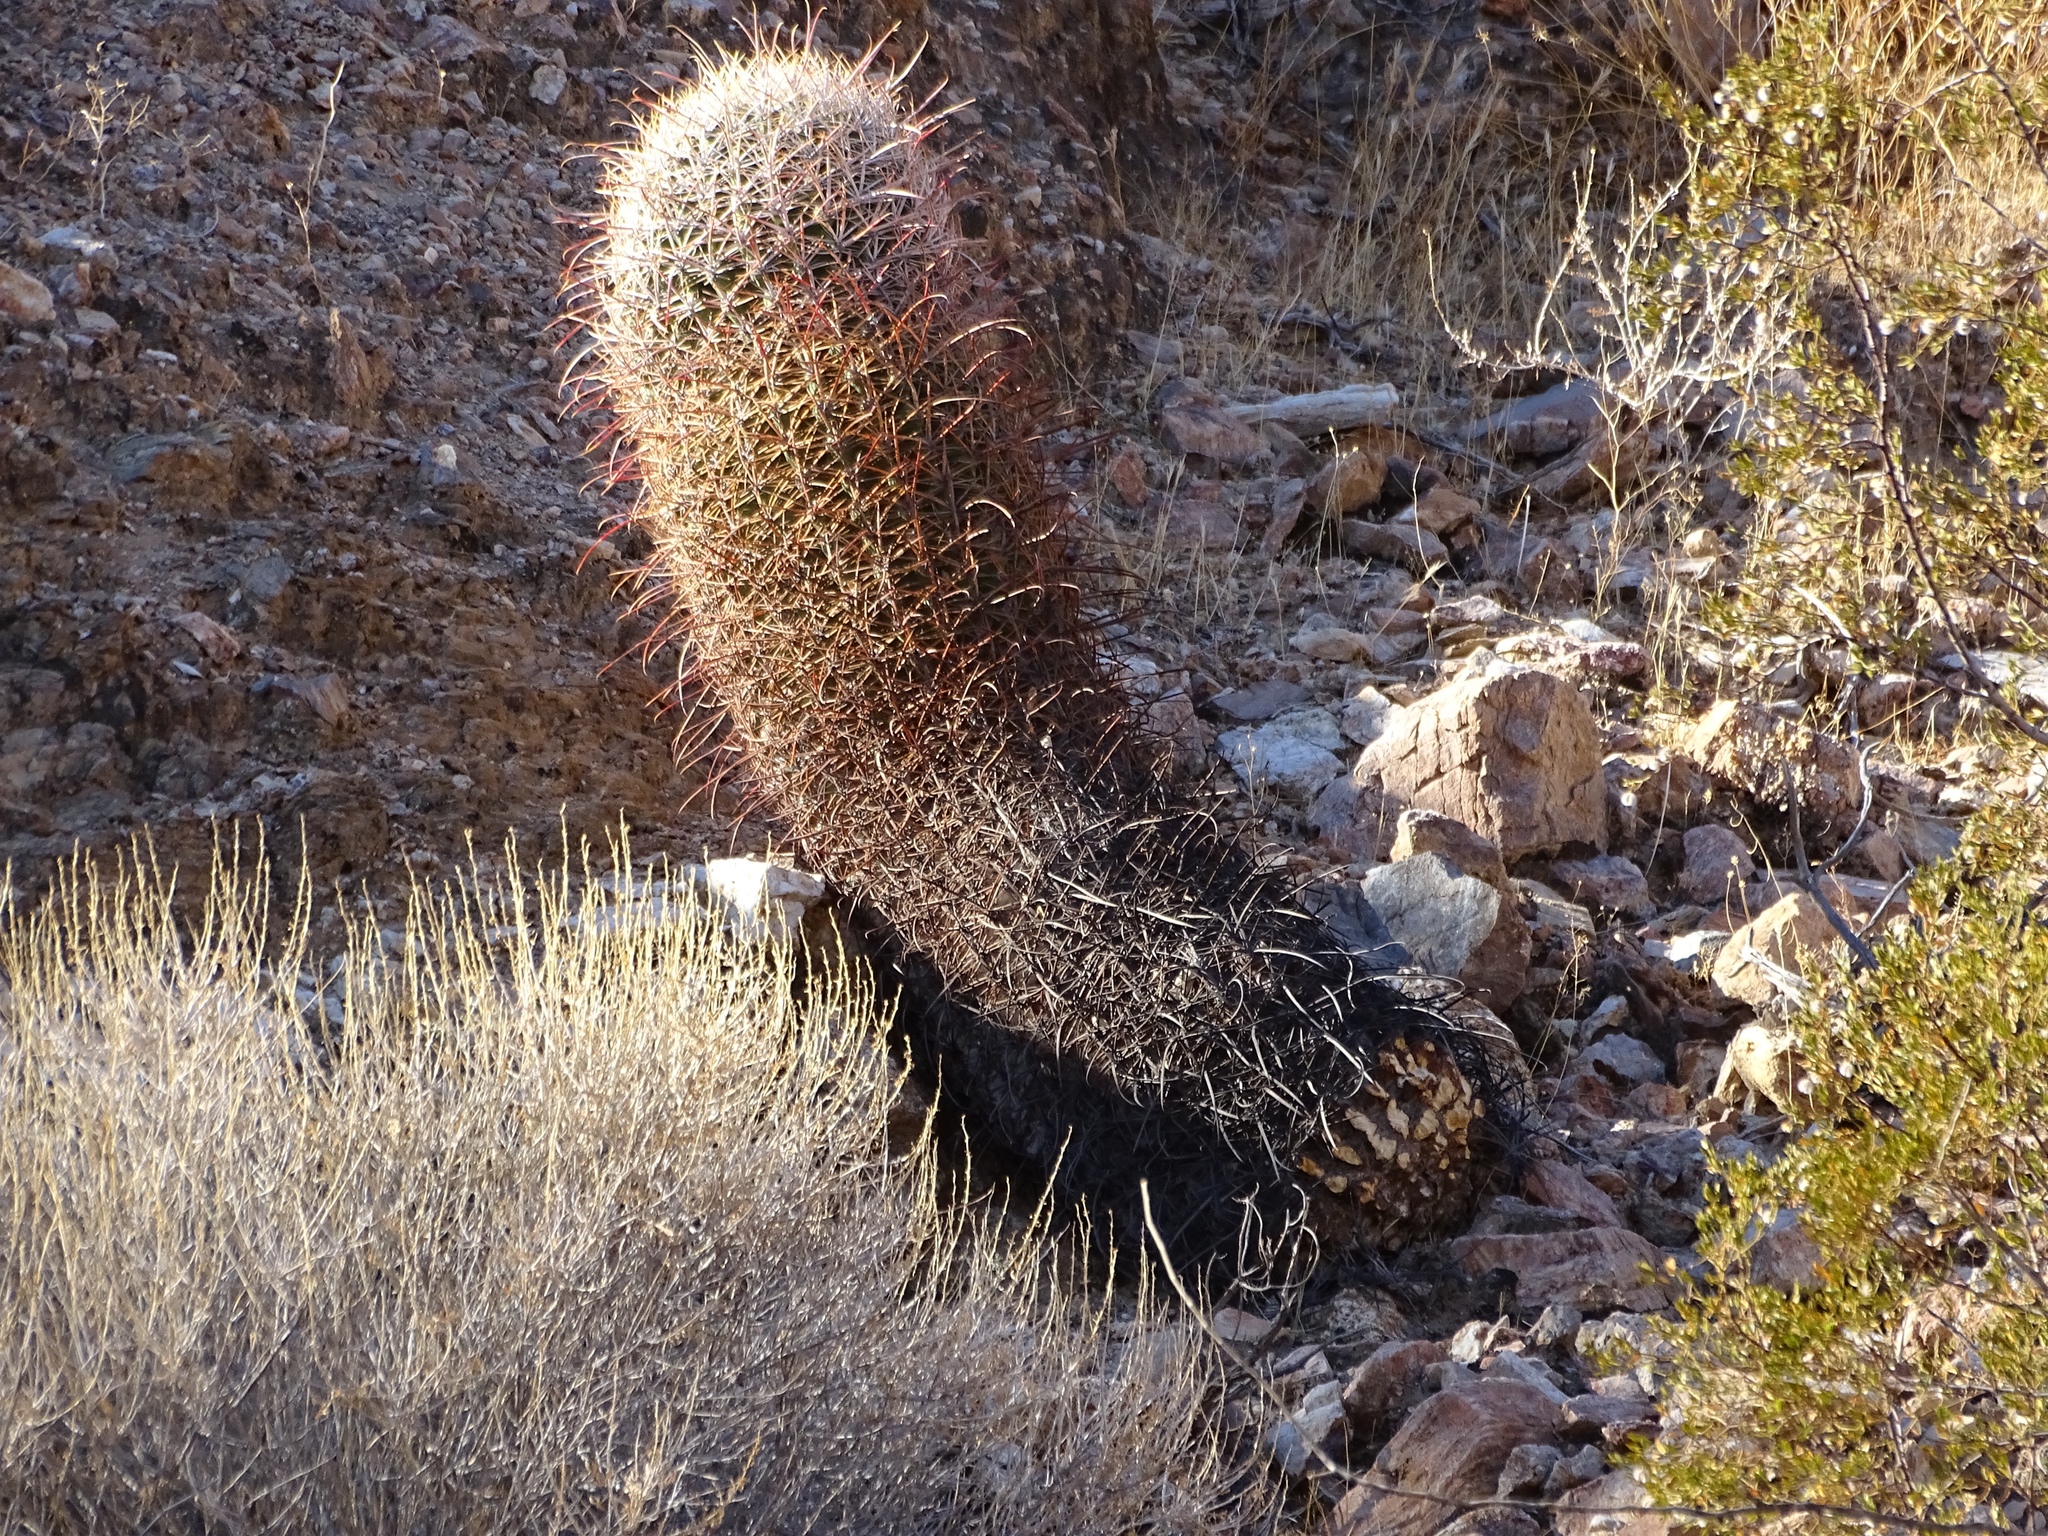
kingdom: Plantae
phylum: Tracheophyta
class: Magnoliopsida
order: Caryophyllales
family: Cactaceae
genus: Ferocactus
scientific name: Ferocactus cylindraceus
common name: California barrel cactus
